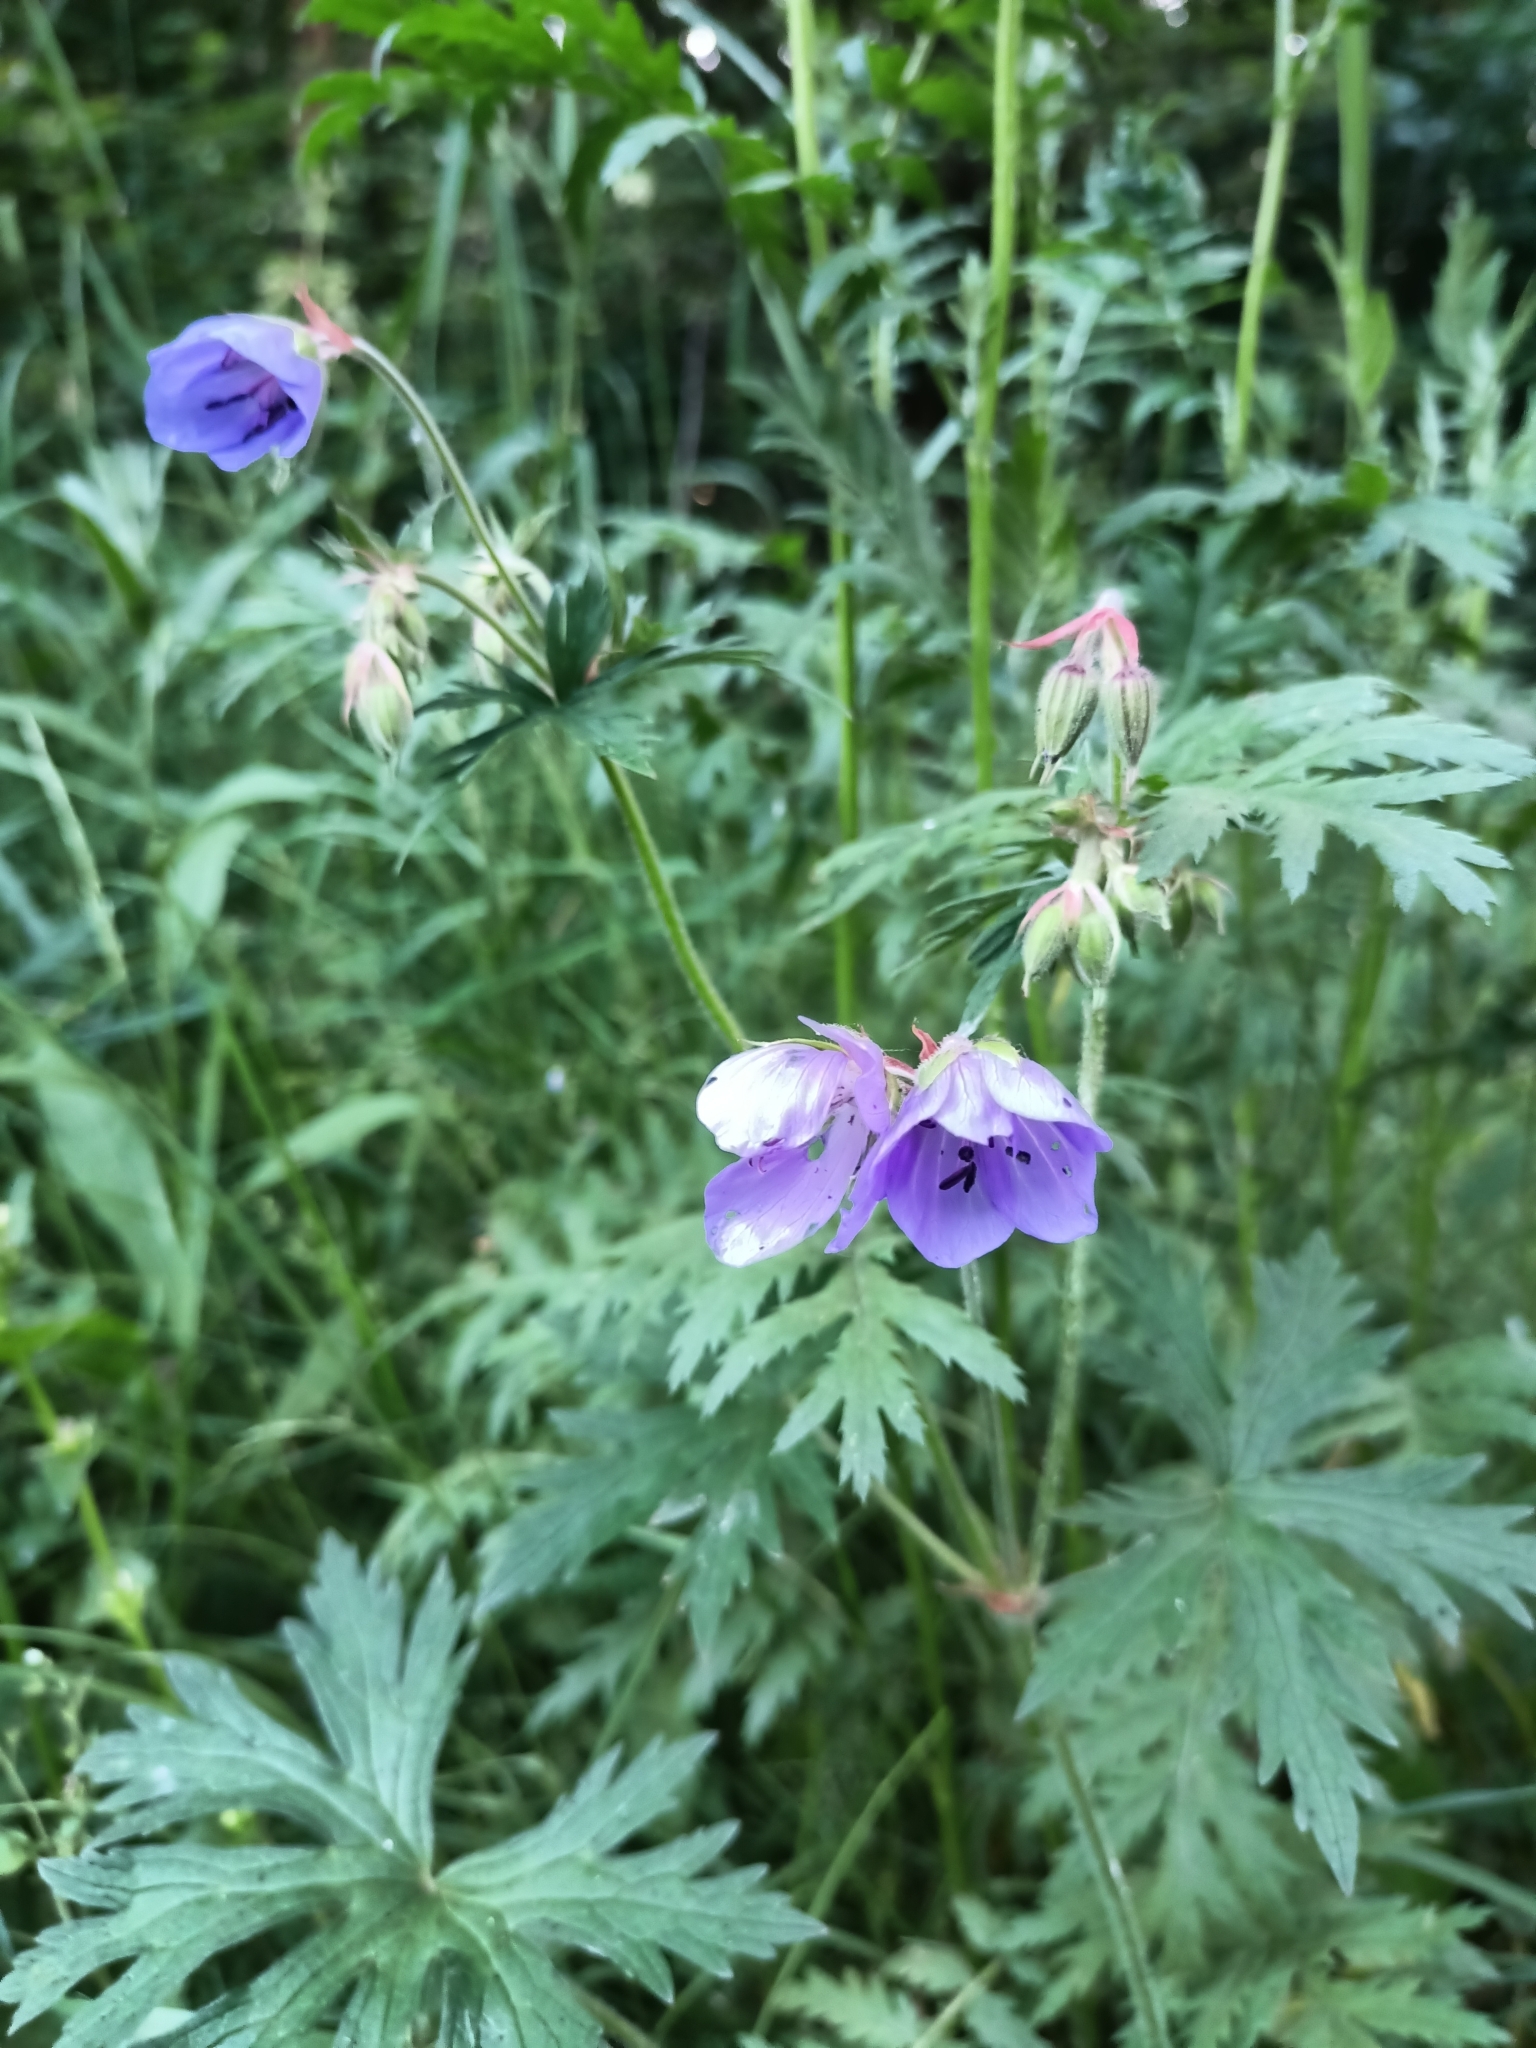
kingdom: Plantae
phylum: Tracheophyta
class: Magnoliopsida
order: Geraniales
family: Geraniaceae
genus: Geranium
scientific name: Geranium pratense
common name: Meadow crane's-bill
